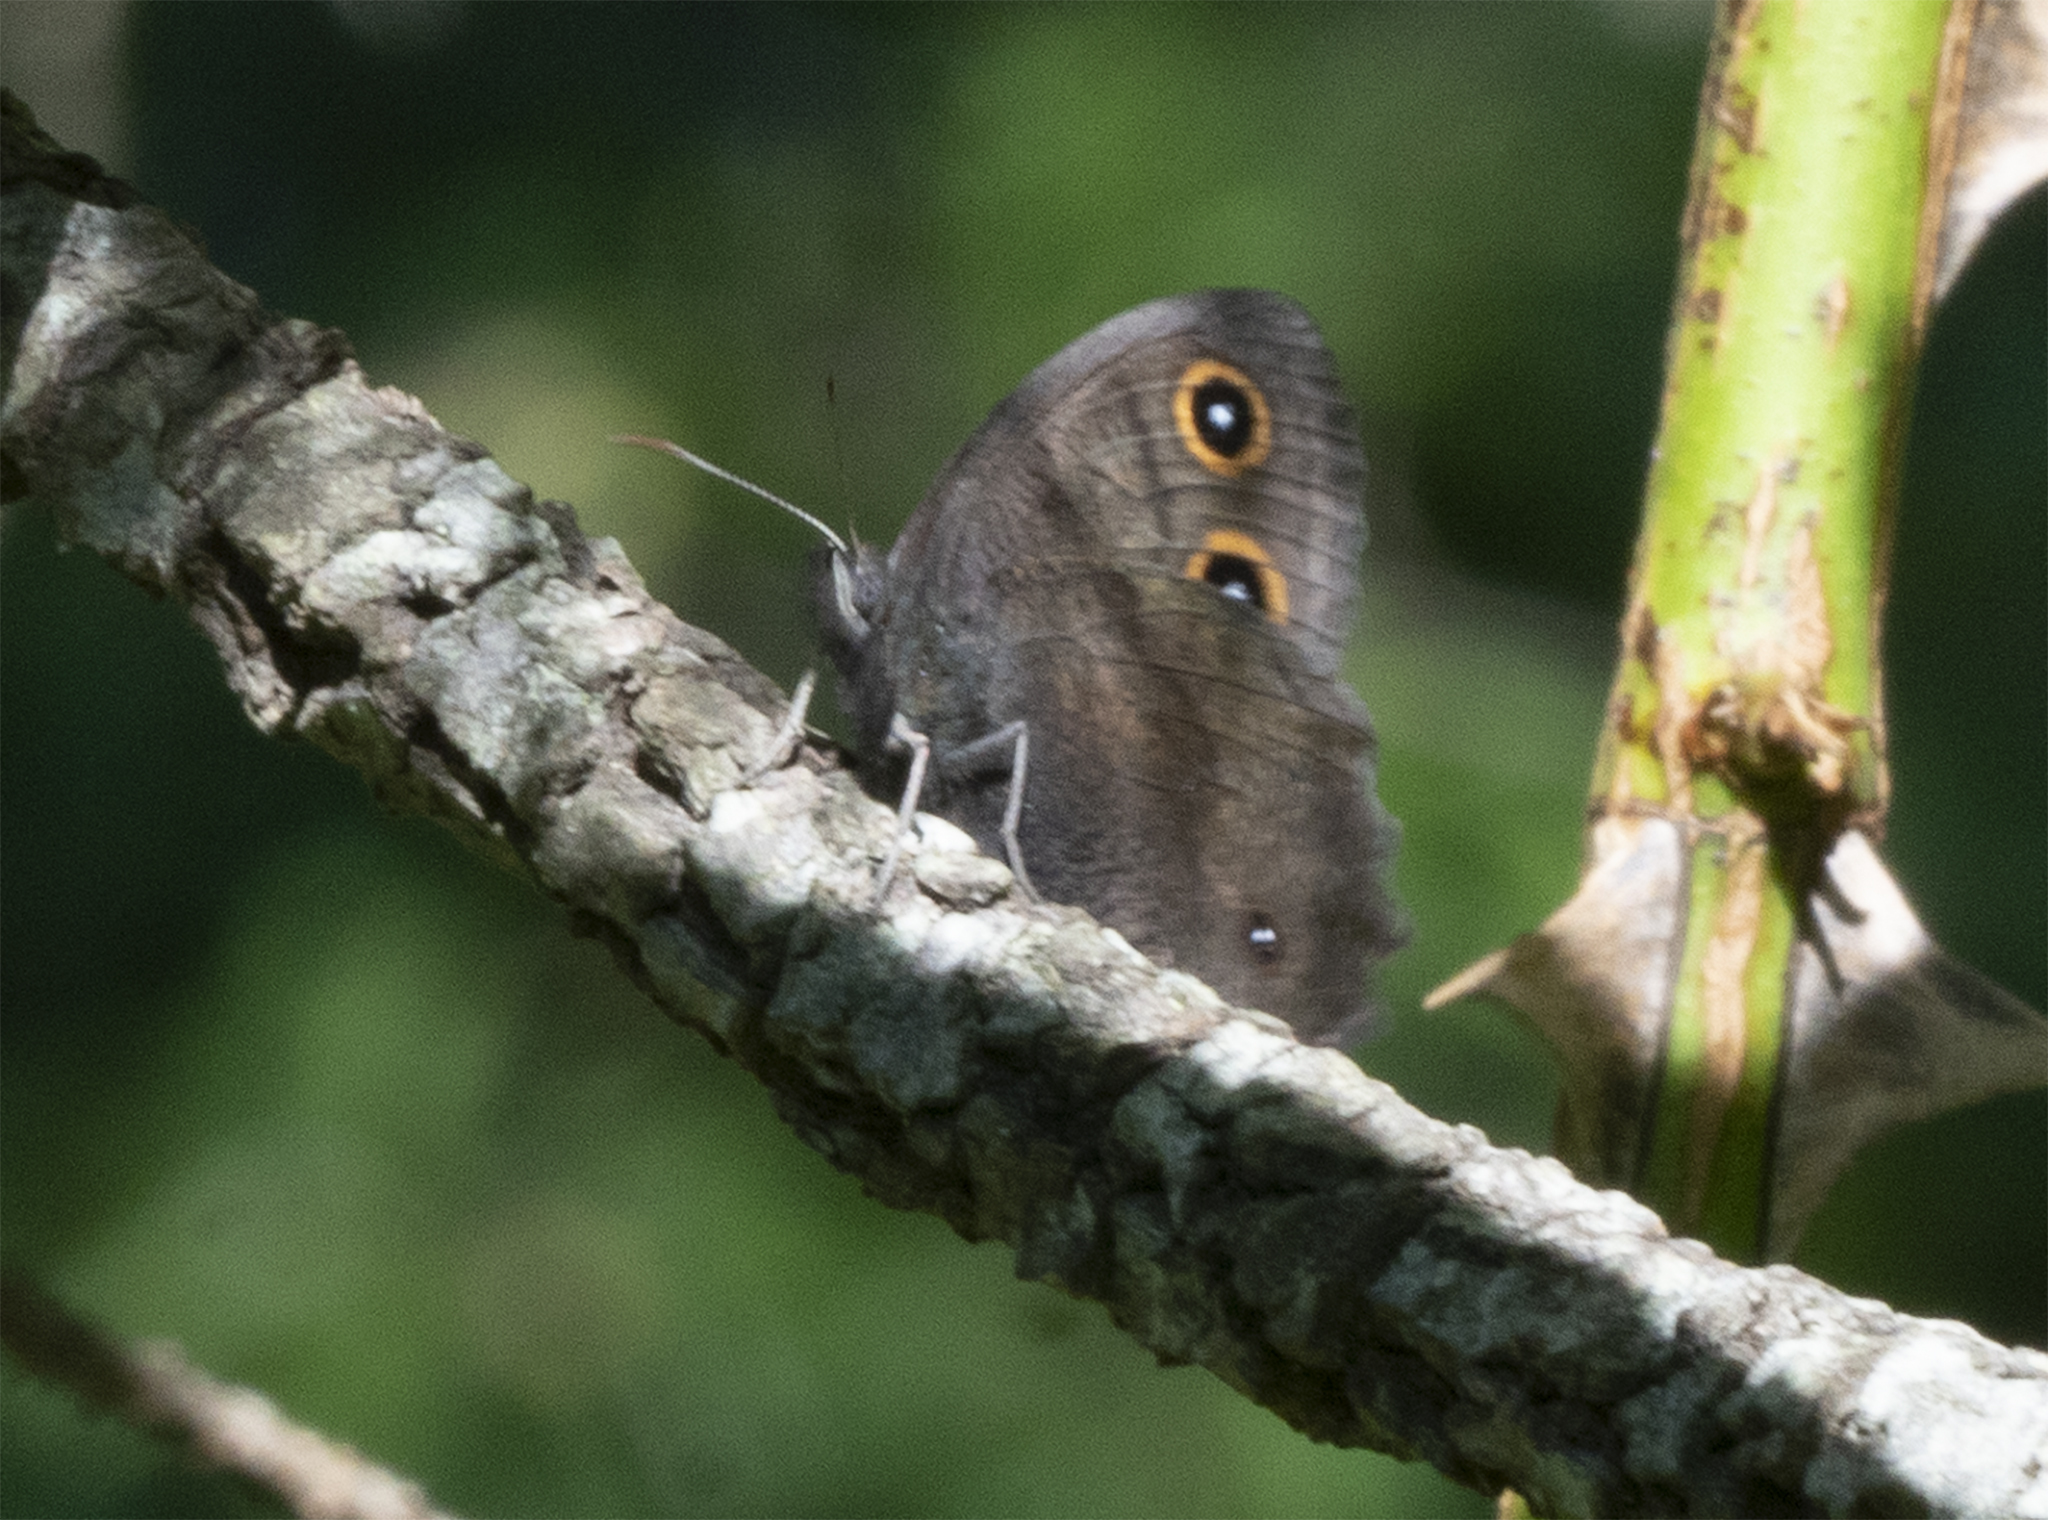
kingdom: Animalia
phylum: Arthropoda
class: Insecta
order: Lepidoptera
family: Nymphalidae
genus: Cercyonis
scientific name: Cercyonis pegala
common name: Common wood-nymph
